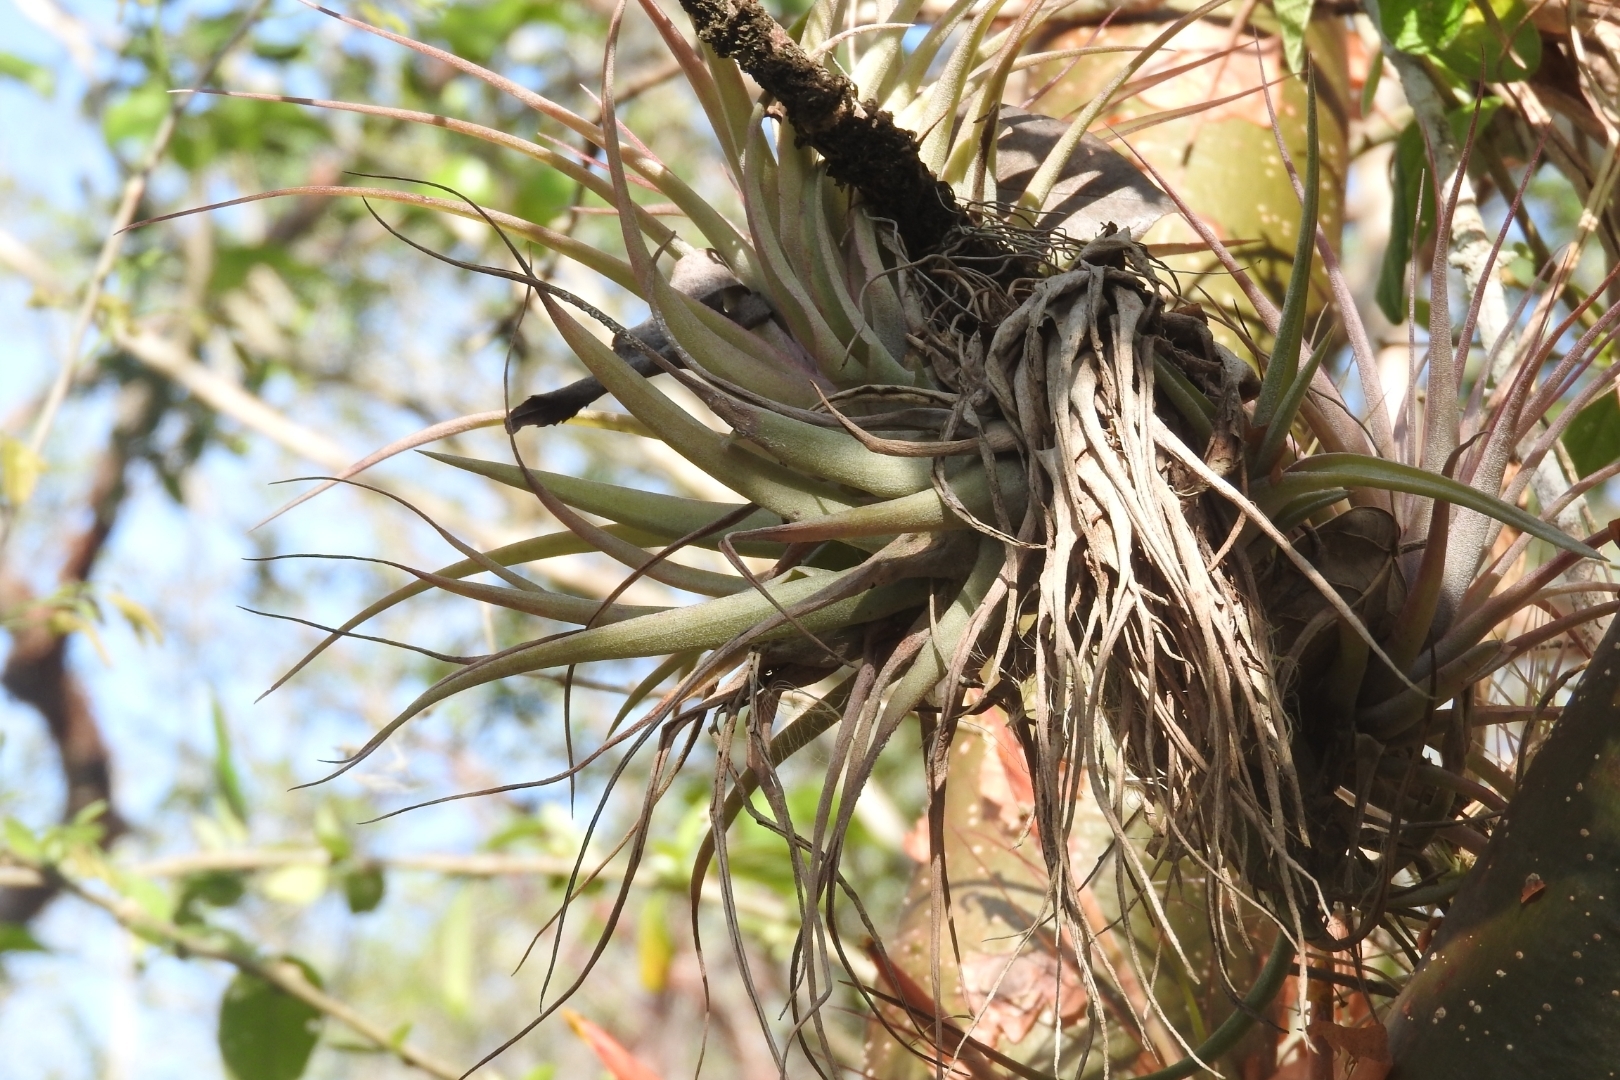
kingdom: Plantae
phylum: Tracheophyta
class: Liliopsida
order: Poales
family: Bromeliaceae
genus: Tillandsia
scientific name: Tillandsia fasciculata
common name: Giant airplant
